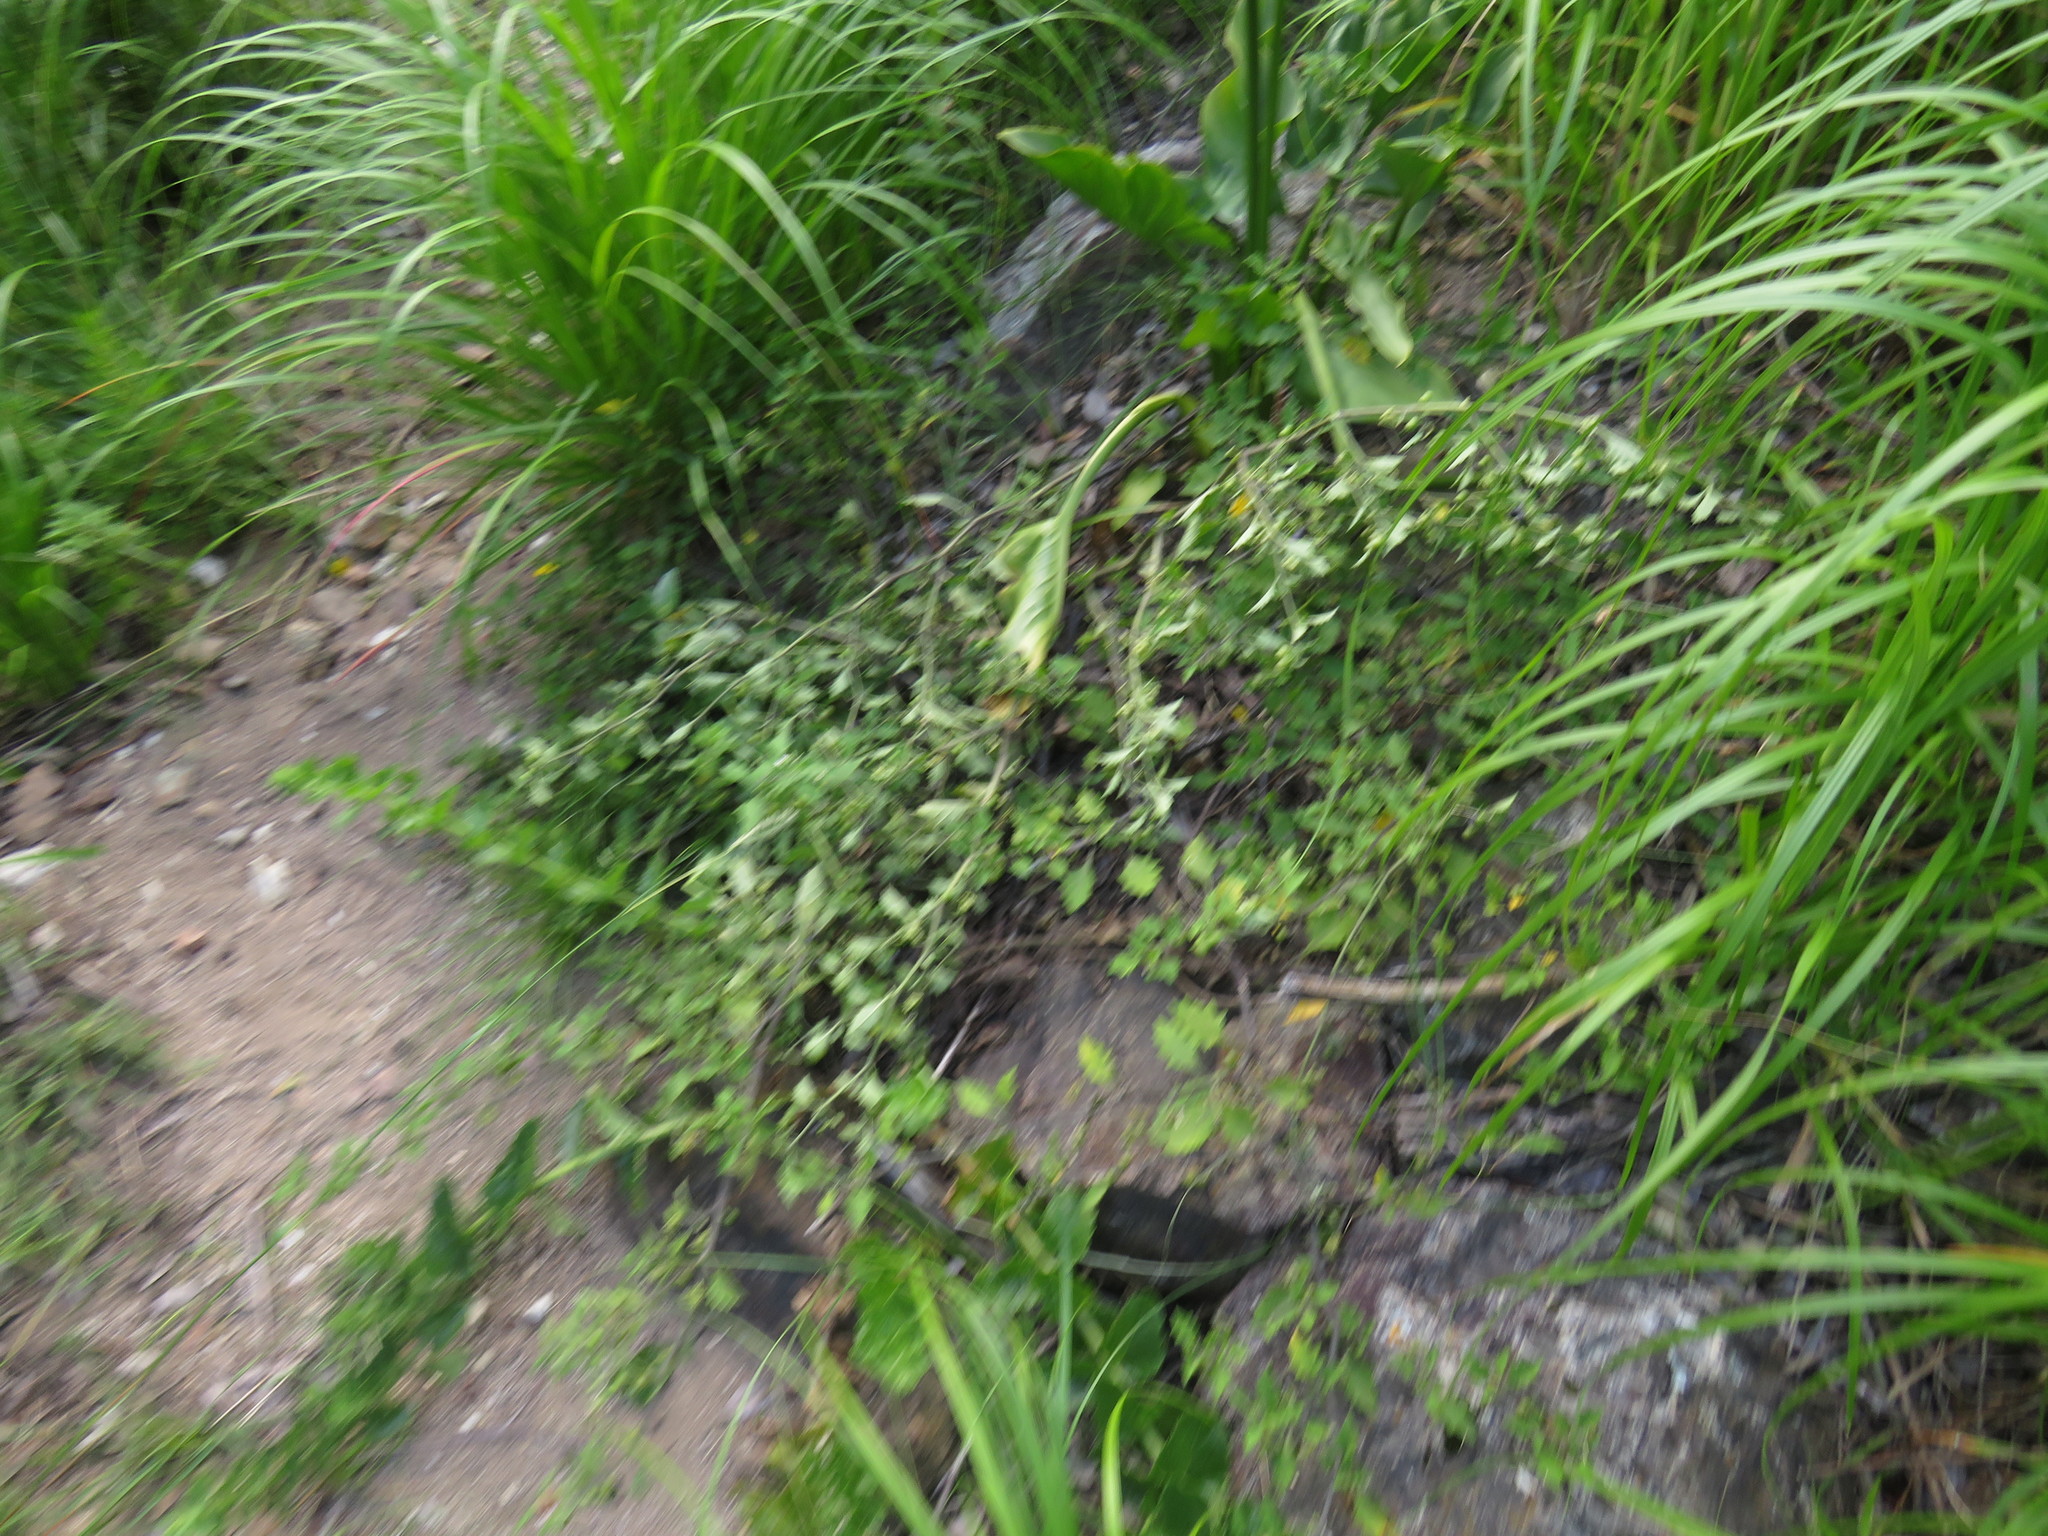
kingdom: Plantae
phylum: Tracheophyta
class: Magnoliopsida
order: Solanales
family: Solanaceae
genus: Solanum
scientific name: Solanum retroflexum
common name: Wonderberry
